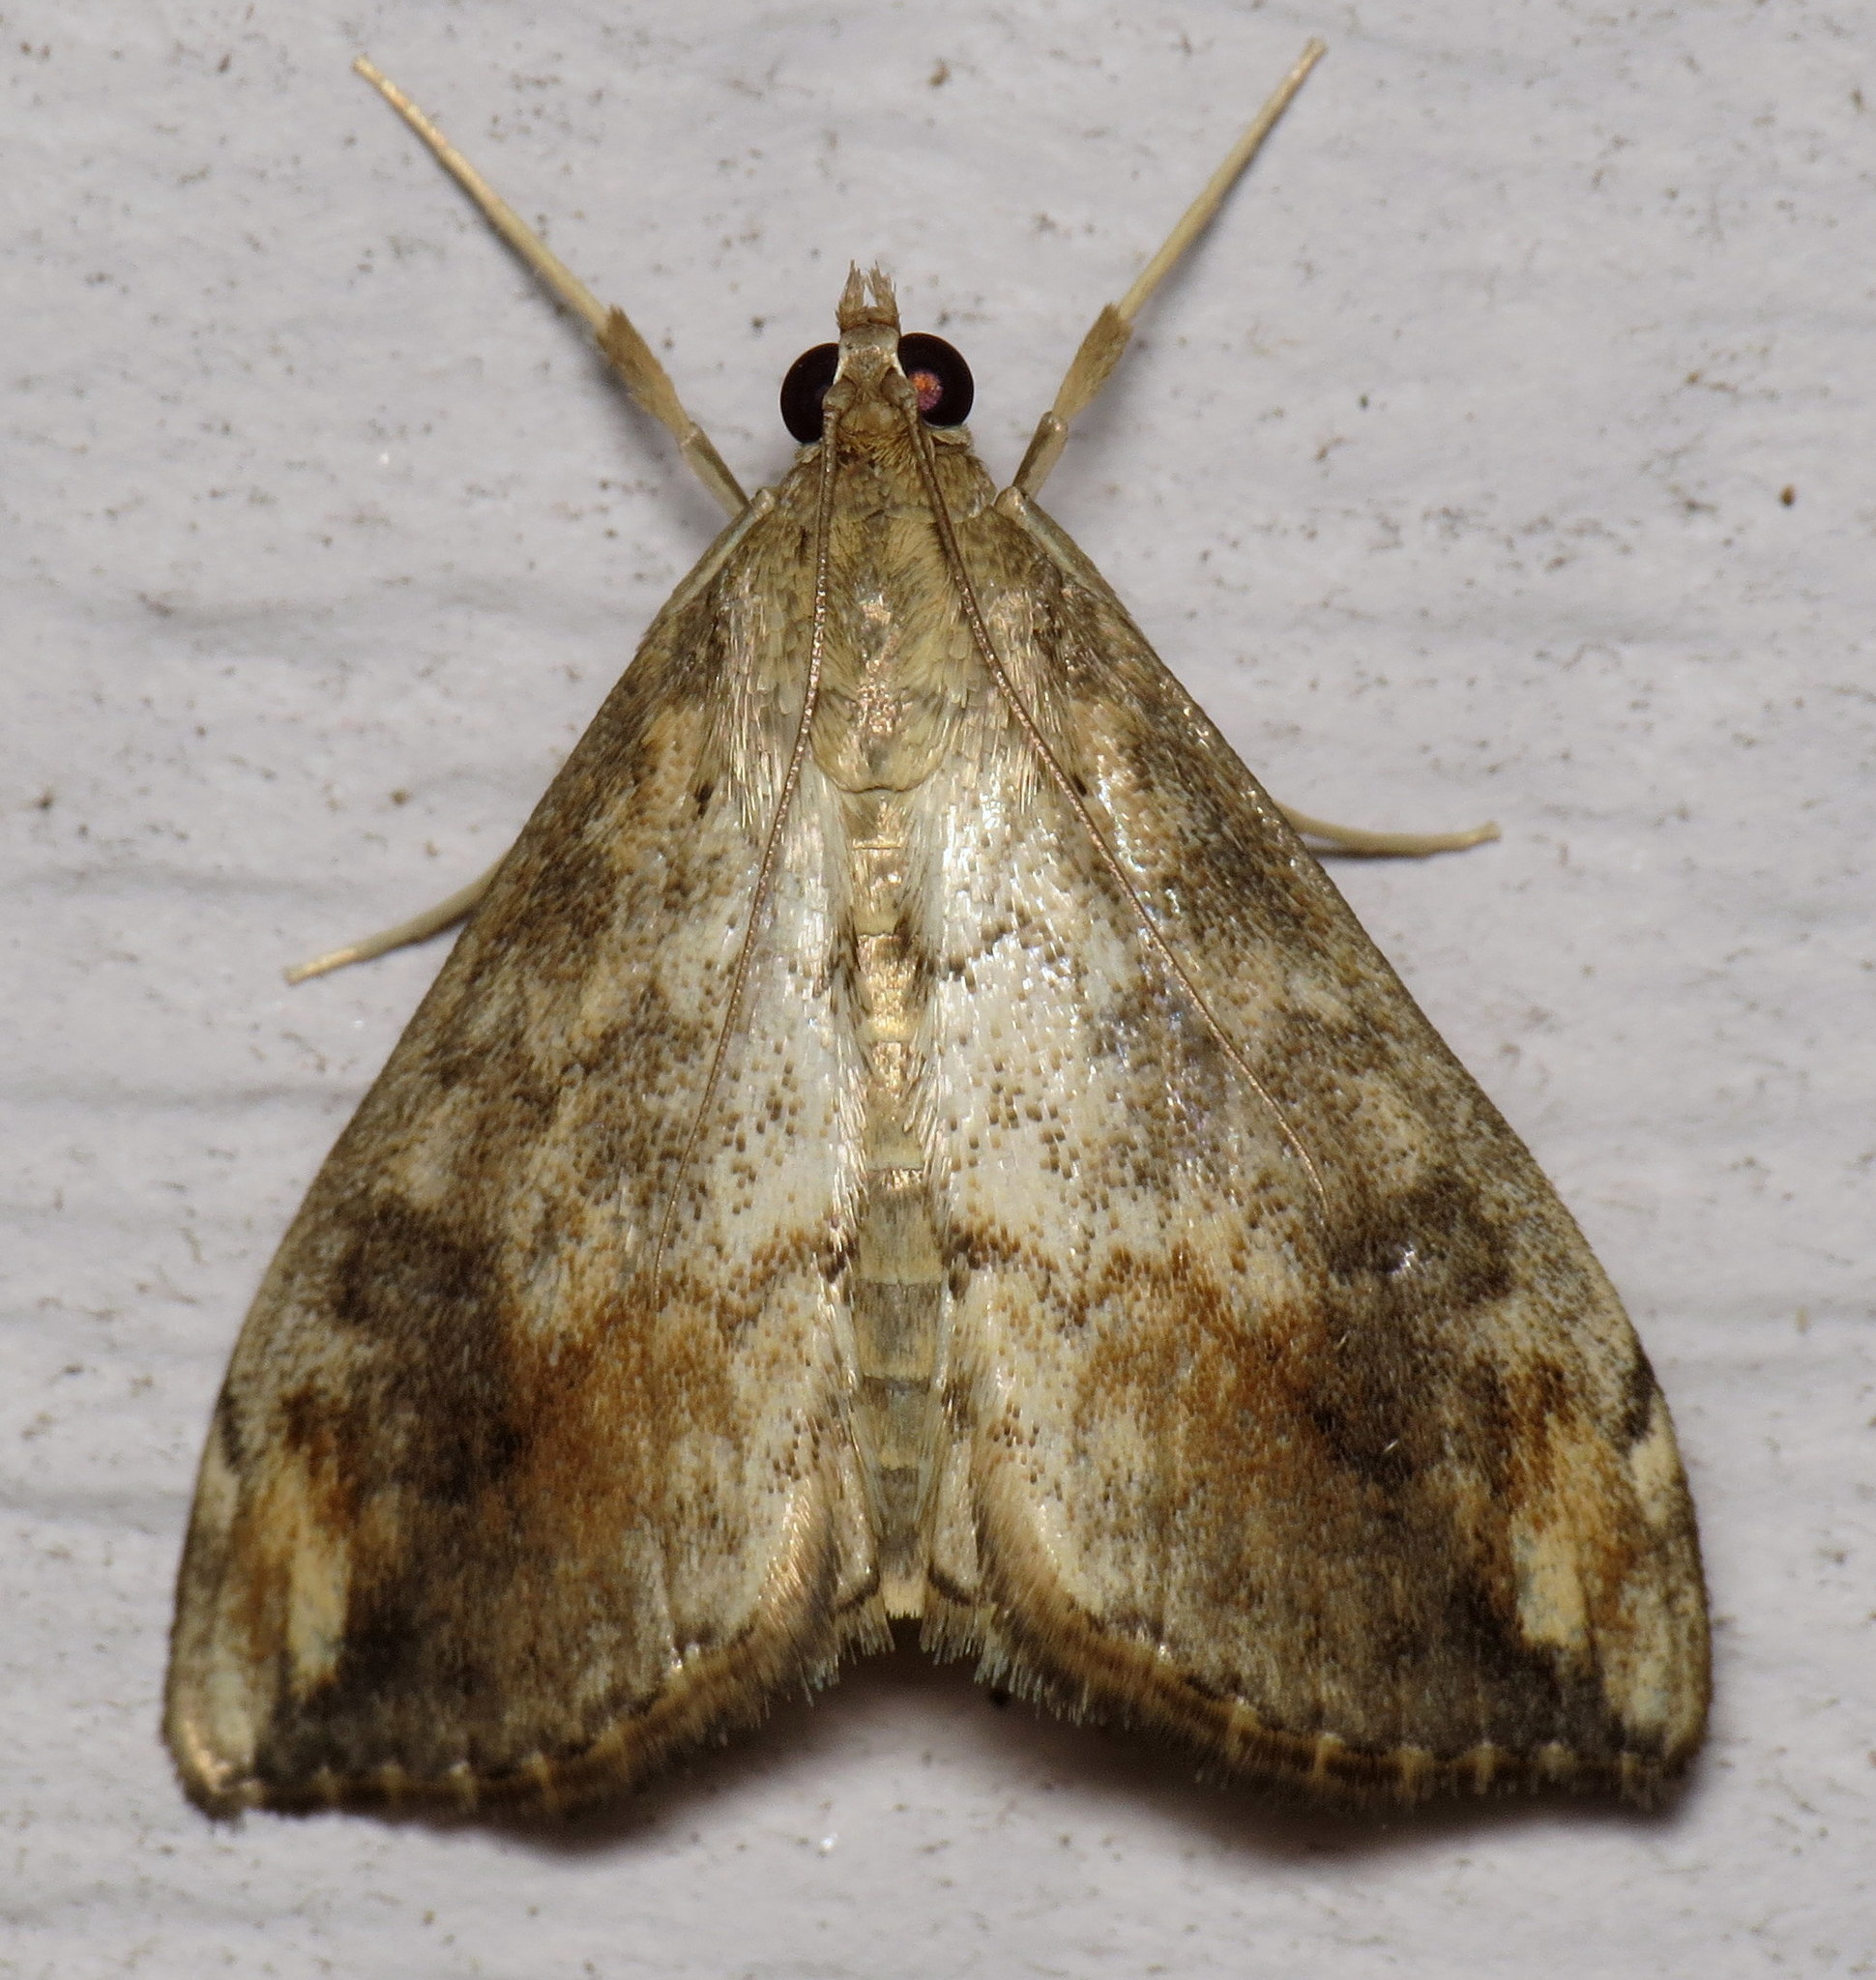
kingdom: Animalia
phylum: Arthropoda
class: Insecta
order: Lepidoptera
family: Crambidae
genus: Evergestis
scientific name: Evergestis rimosalis
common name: Cross-striped cabbageworm moth
